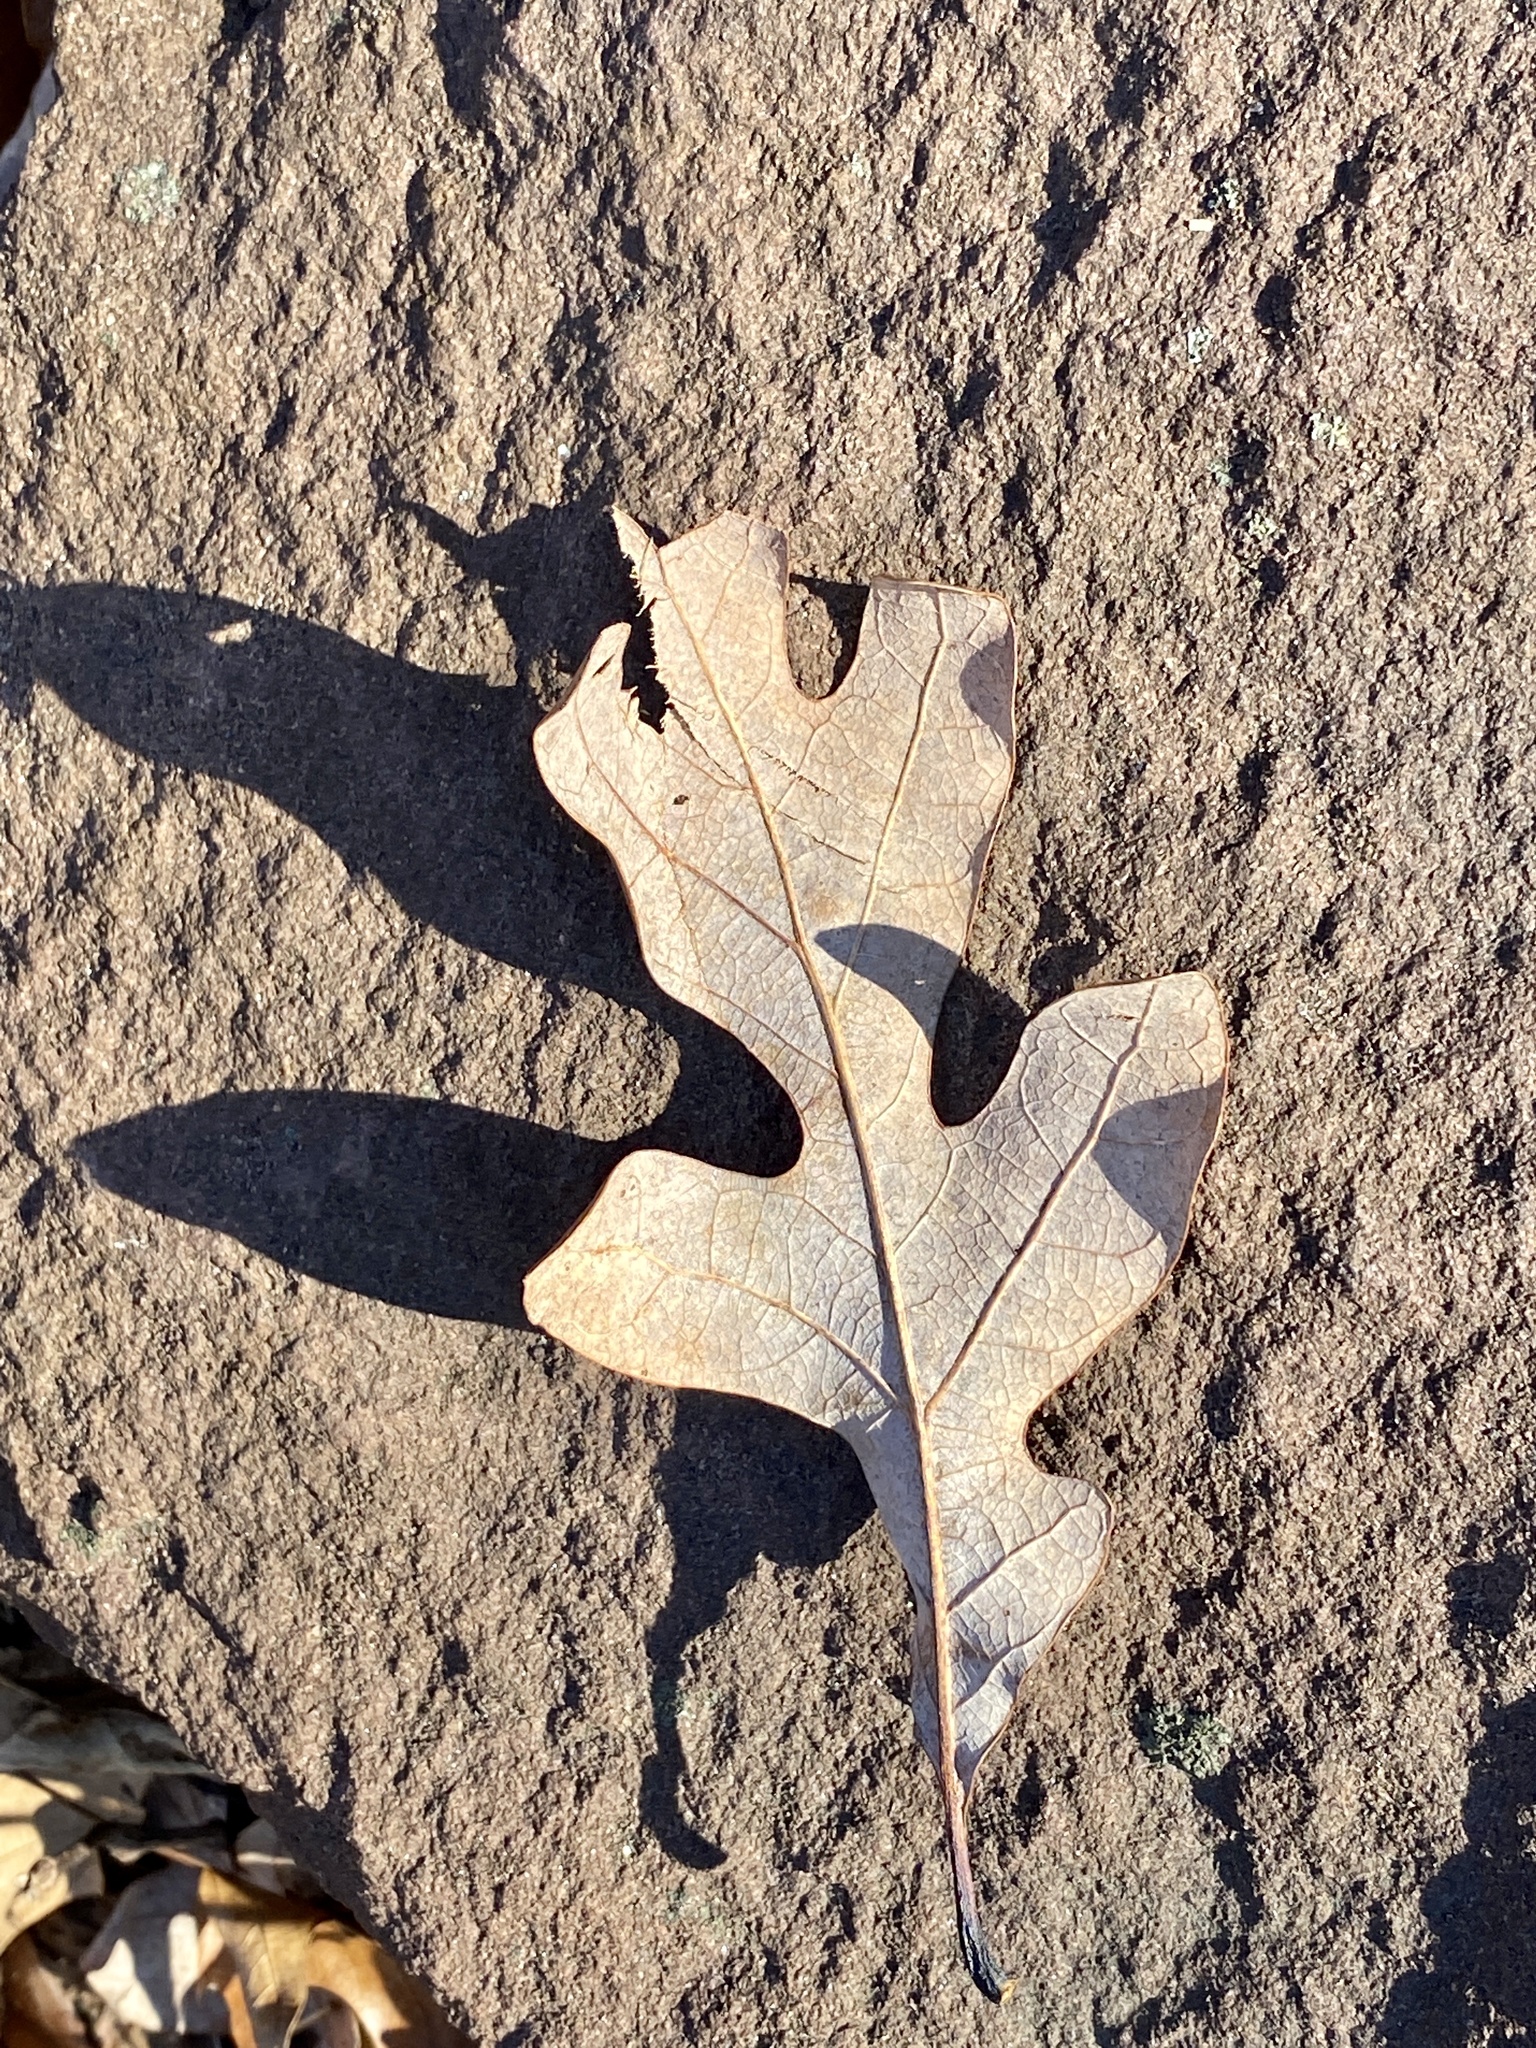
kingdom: Plantae
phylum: Tracheophyta
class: Magnoliopsida
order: Fagales
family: Fagaceae
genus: Quercus
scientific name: Quercus alba
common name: White oak
